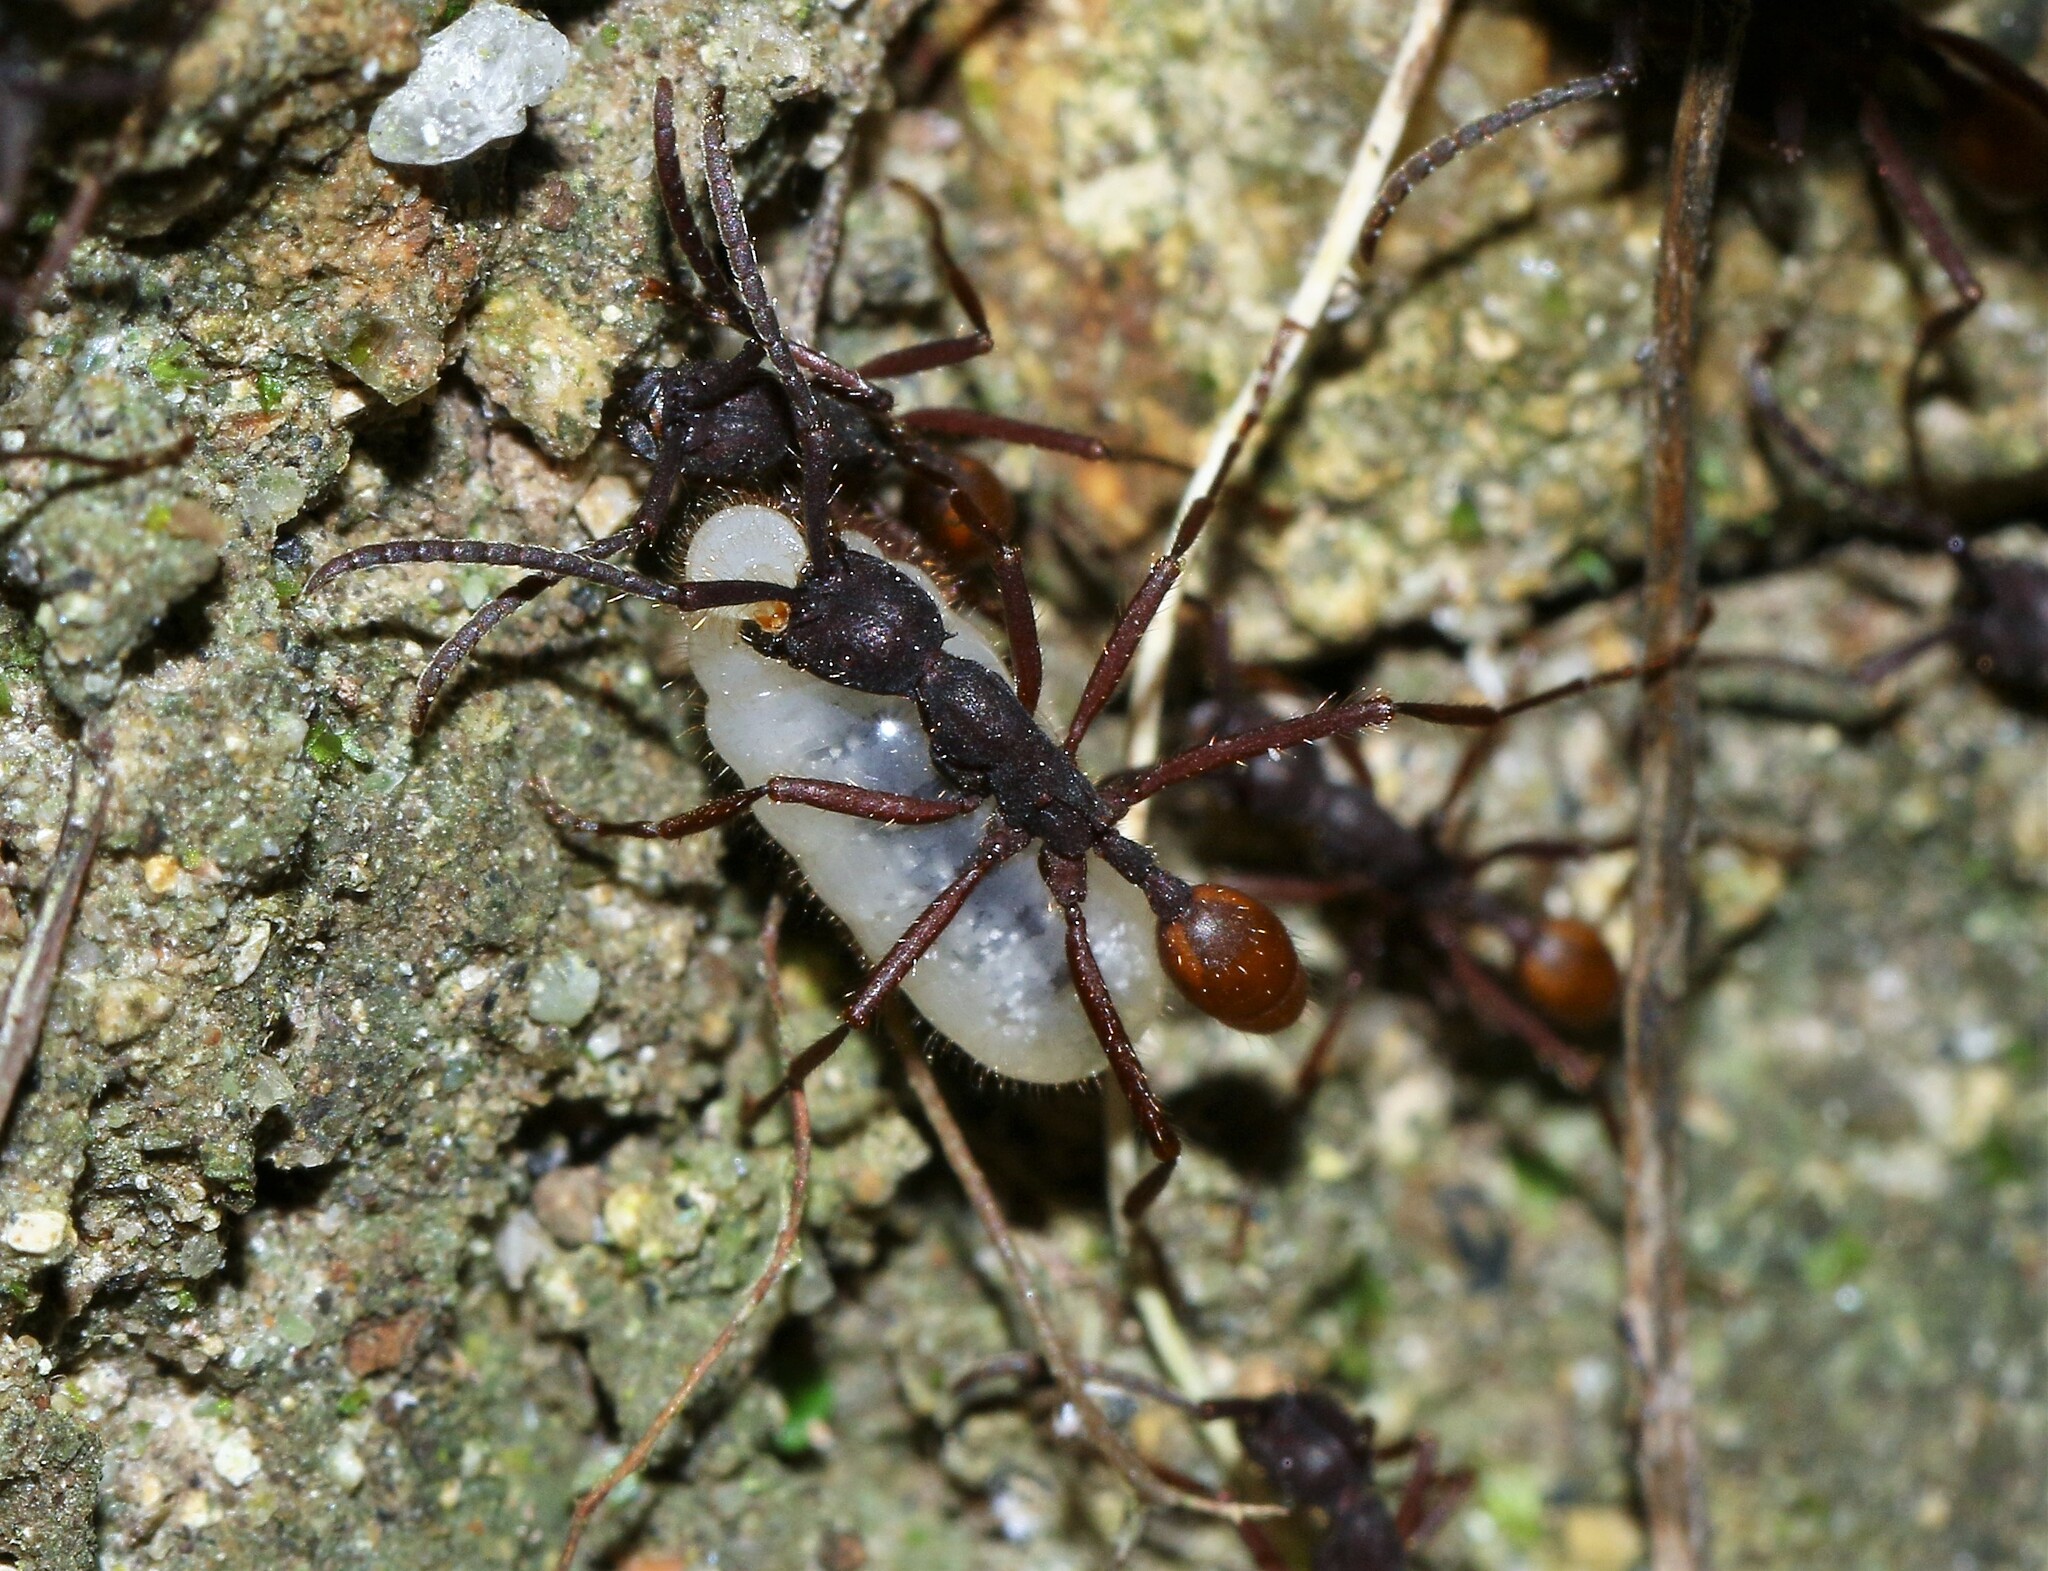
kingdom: Animalia
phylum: Arthropoda
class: Insecta
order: Hymenoptera
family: Formicidae
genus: Eciton
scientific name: Eciton burchellii
